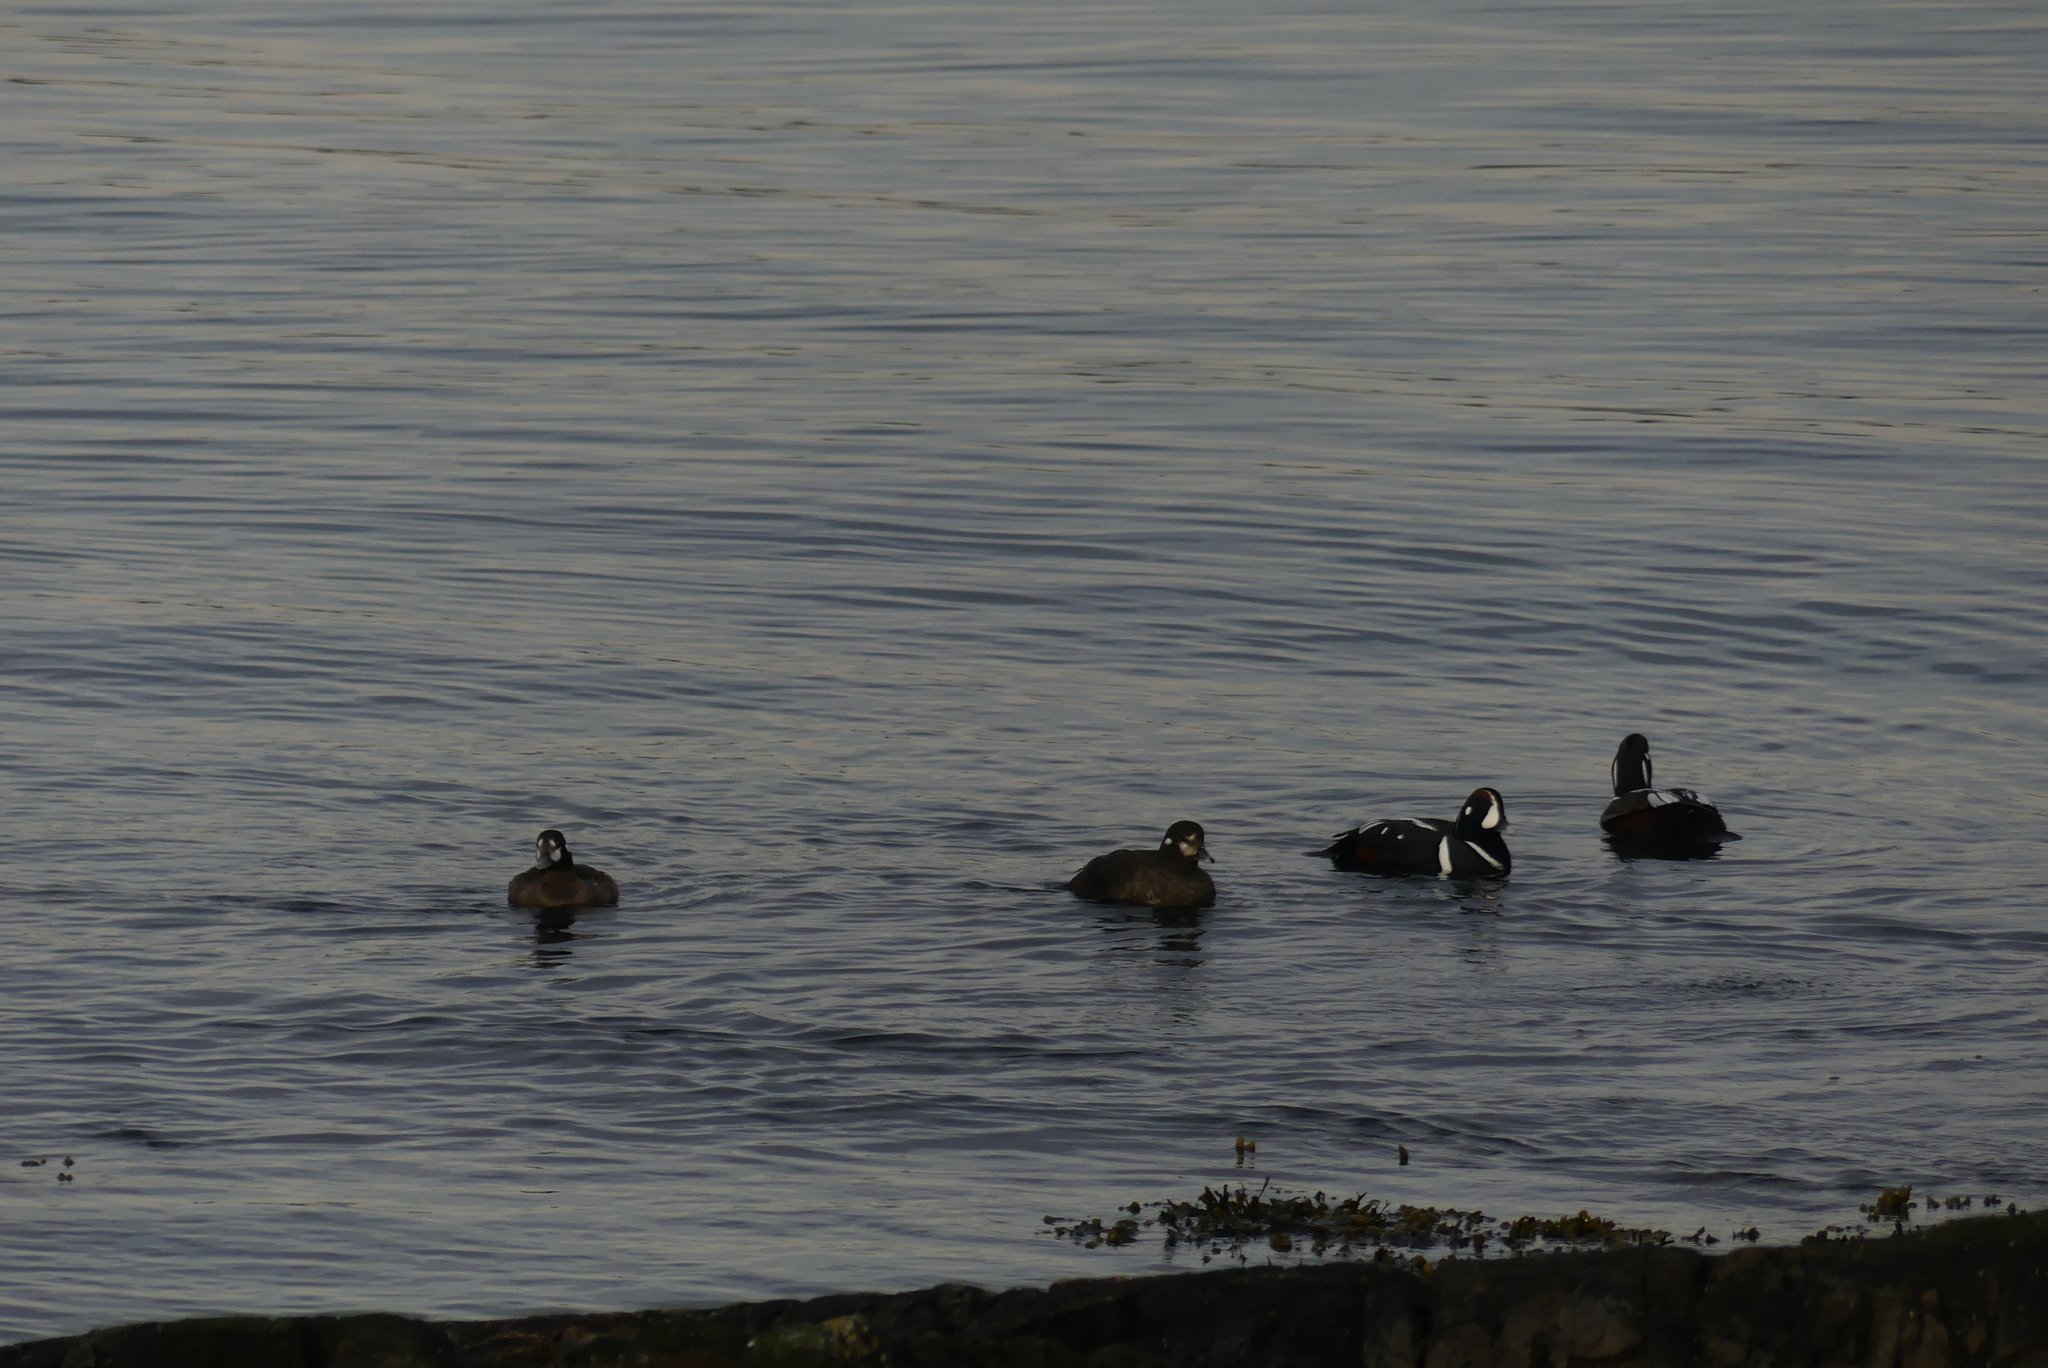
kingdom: Animalia
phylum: Chordata
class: Aves
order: Anseriformes
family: Anatidae
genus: Histrionicus
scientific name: Histrionicus histrionicus
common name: Harlequin duck
